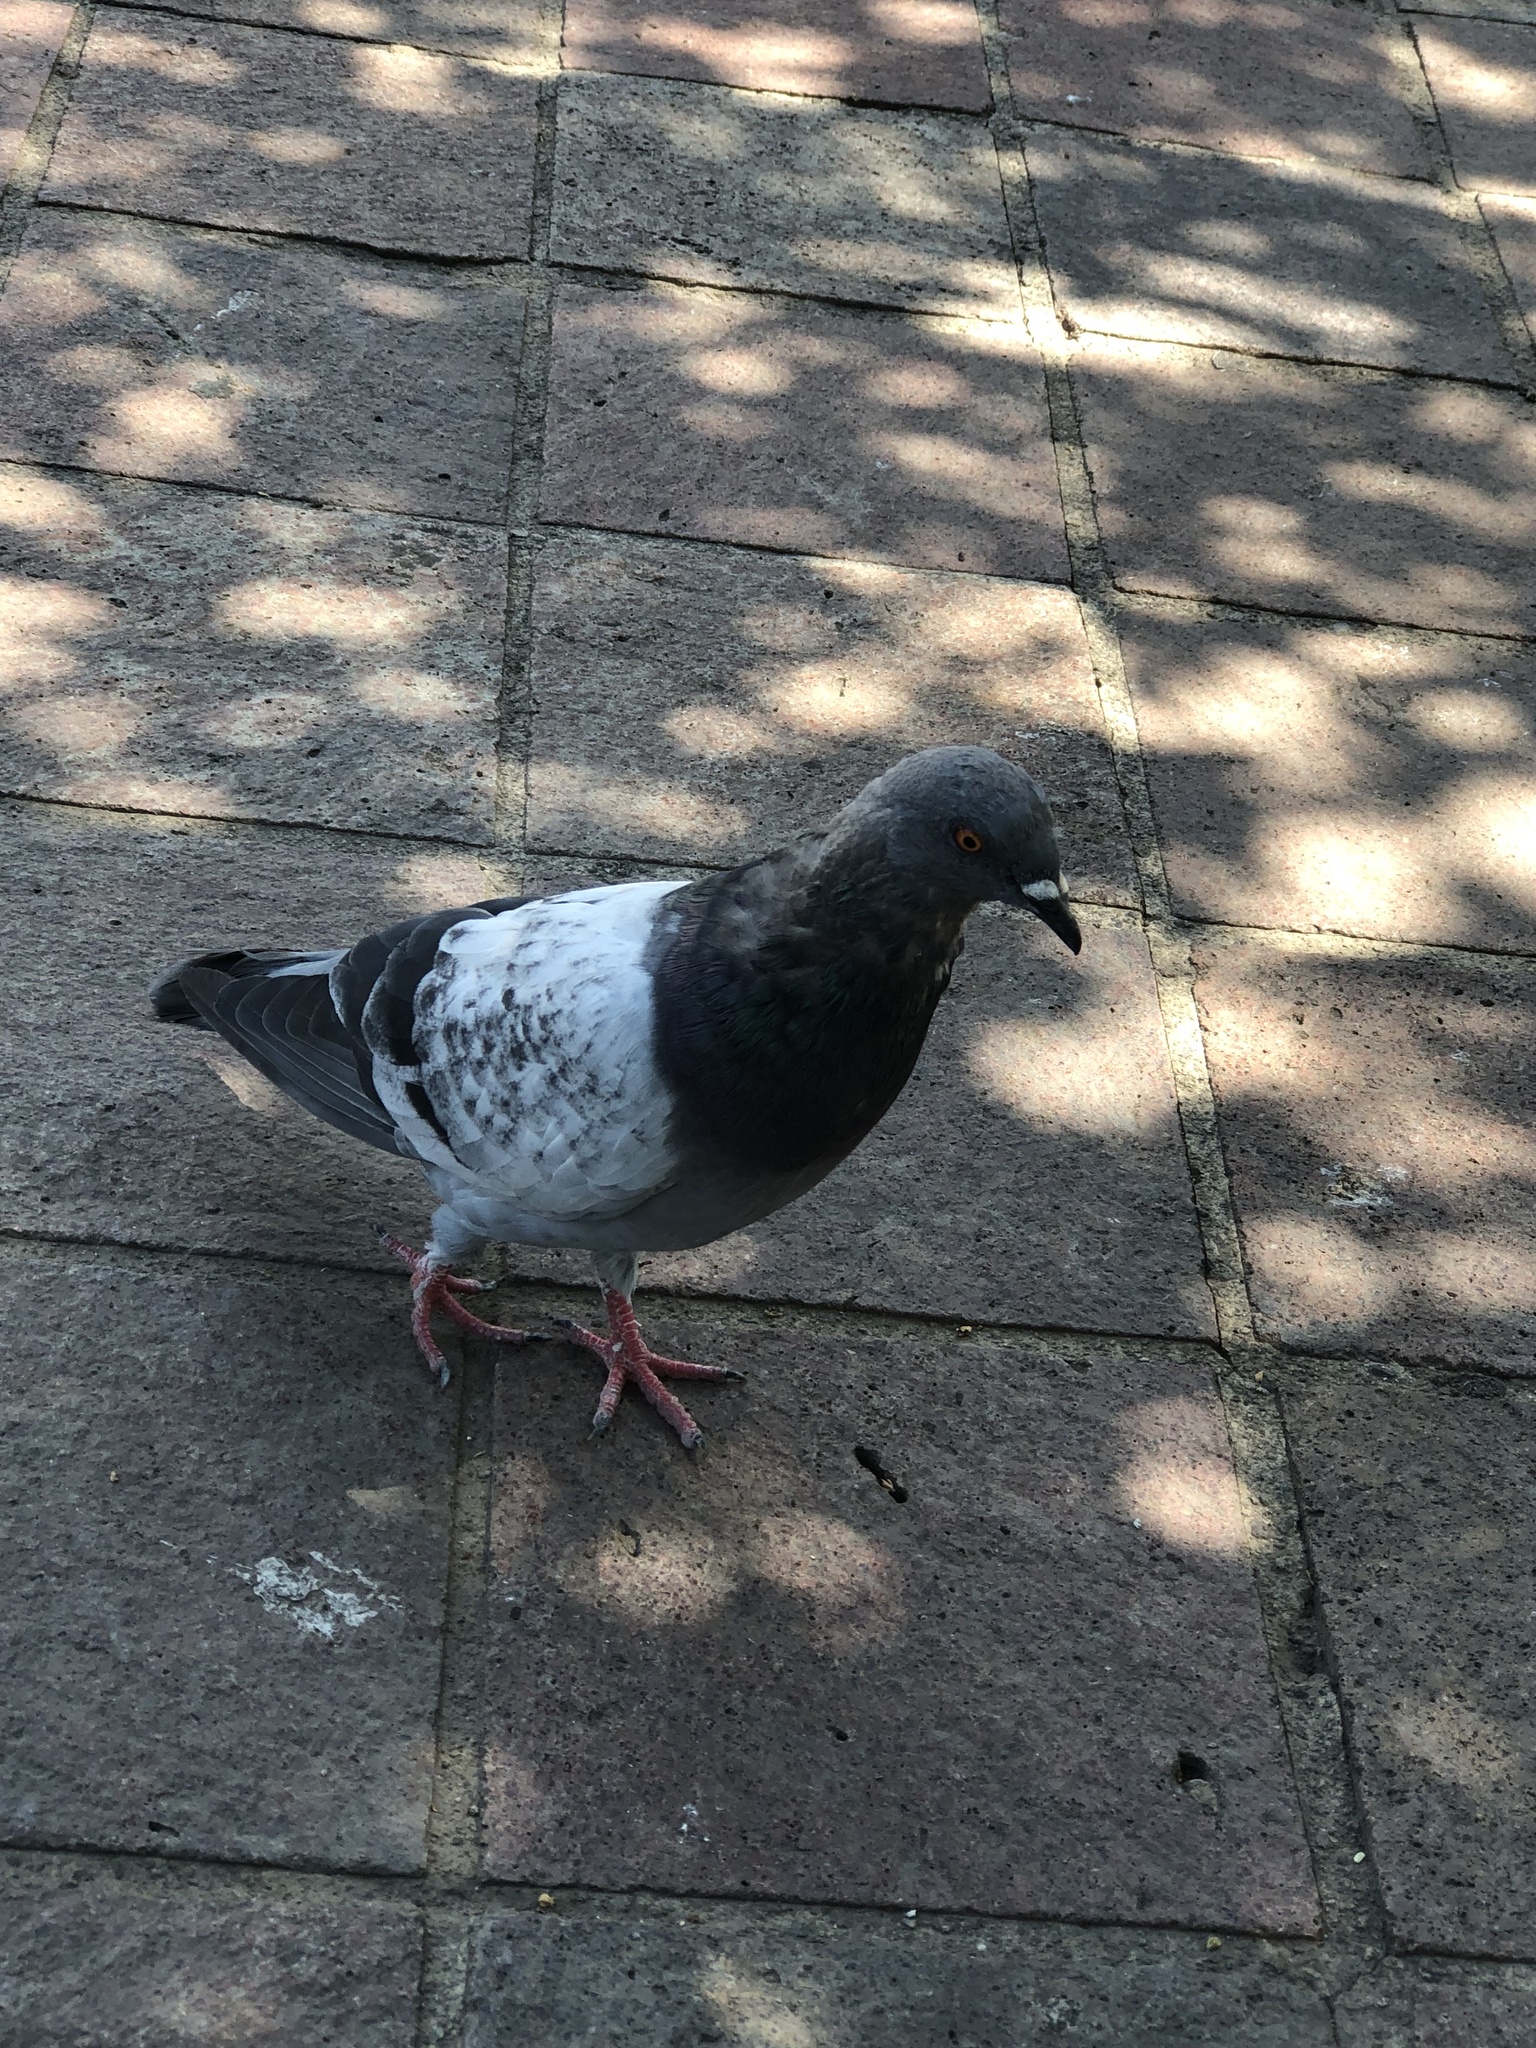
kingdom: Animalia
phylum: Chordata
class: Aves
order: Columbiformes
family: Columbidae
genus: Columba
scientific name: Columba livia
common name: Rock pigeon
